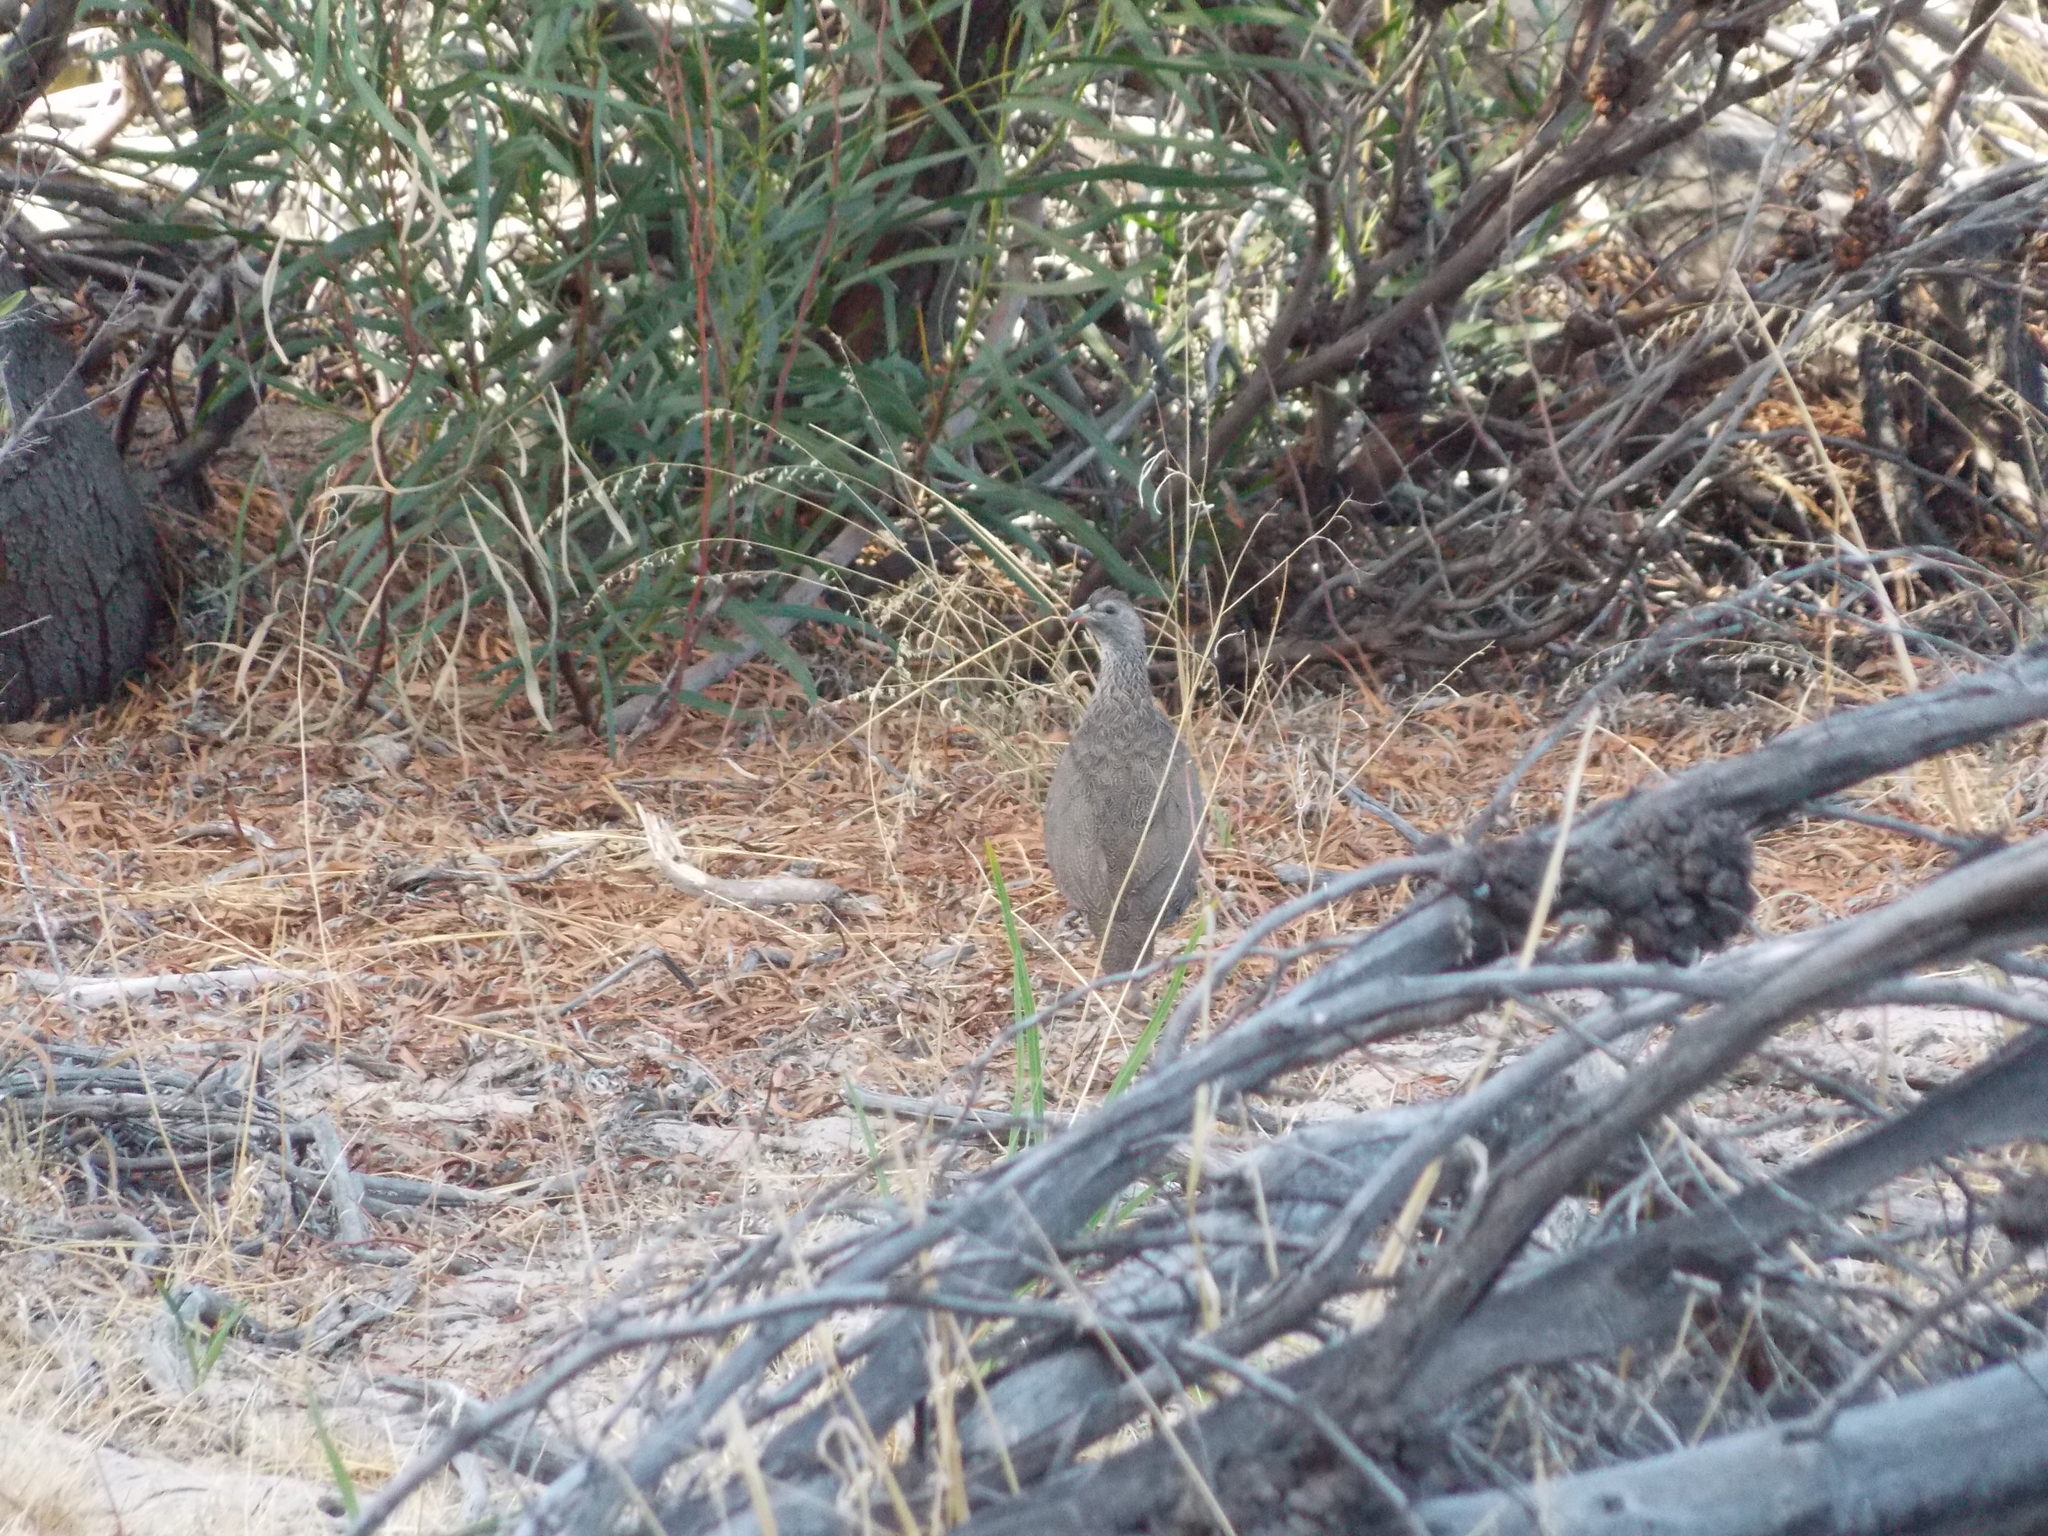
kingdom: Animalia
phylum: Chordata
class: Aves
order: Galliformes
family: Phasianidae
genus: Pternistis
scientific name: Pternistis capensis
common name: Cape spurfowl
